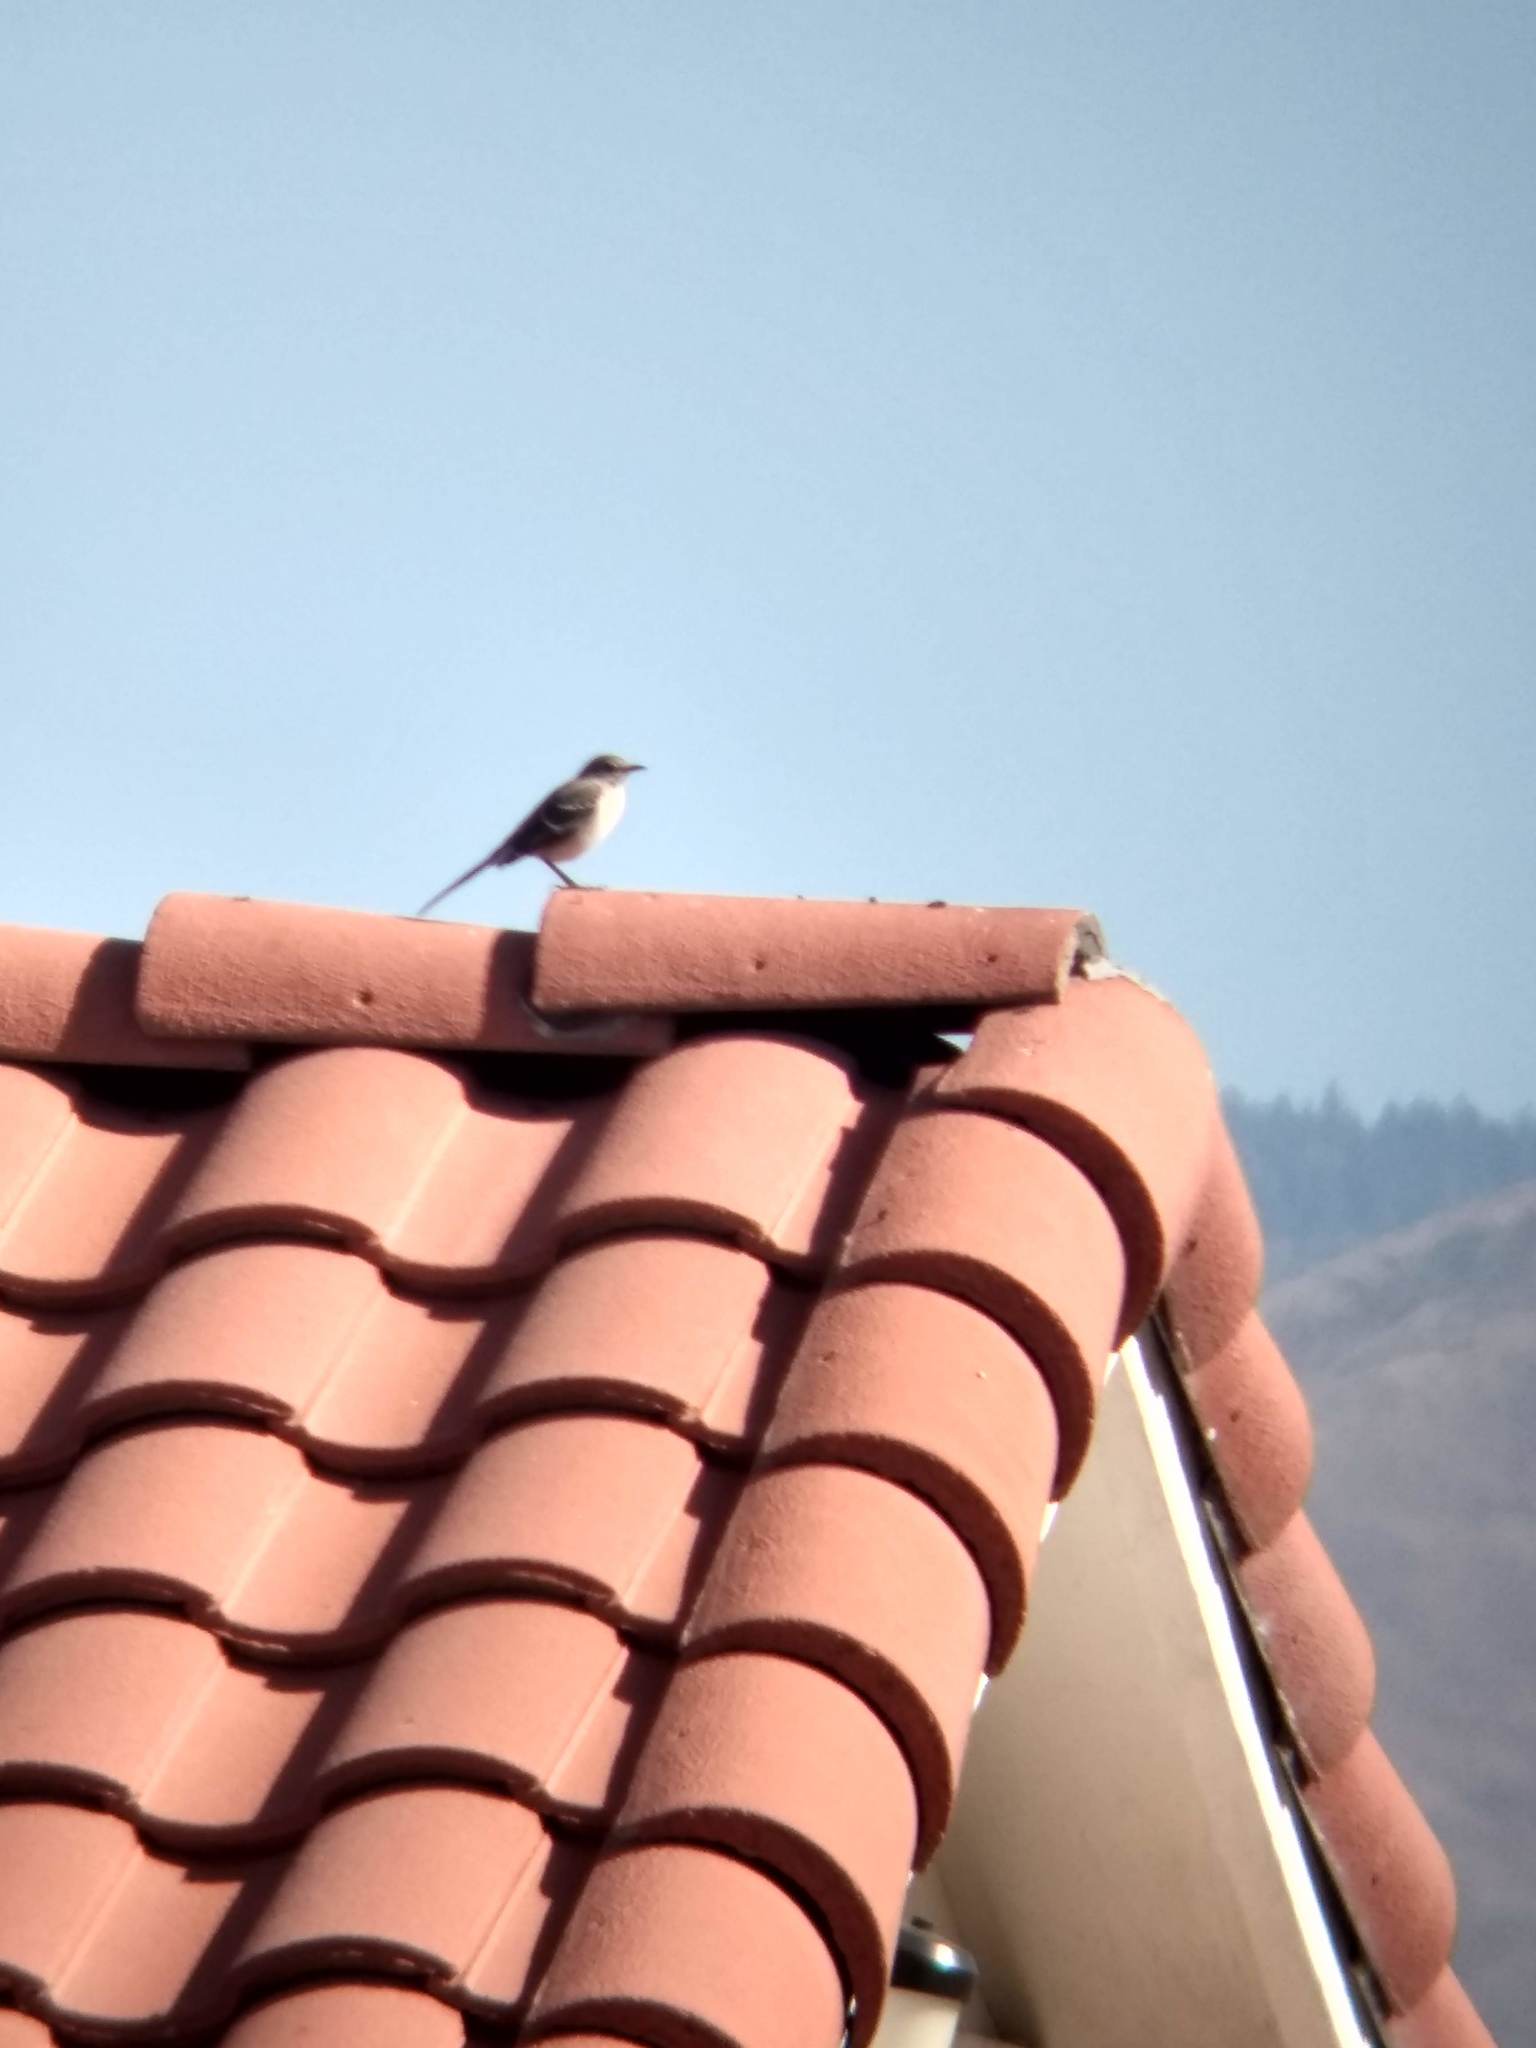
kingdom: Animalia
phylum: Chordata
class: Aves
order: Passeriformes
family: Mimidae
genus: Mimus
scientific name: Mimus polyglottos
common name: Northern mockingbird
